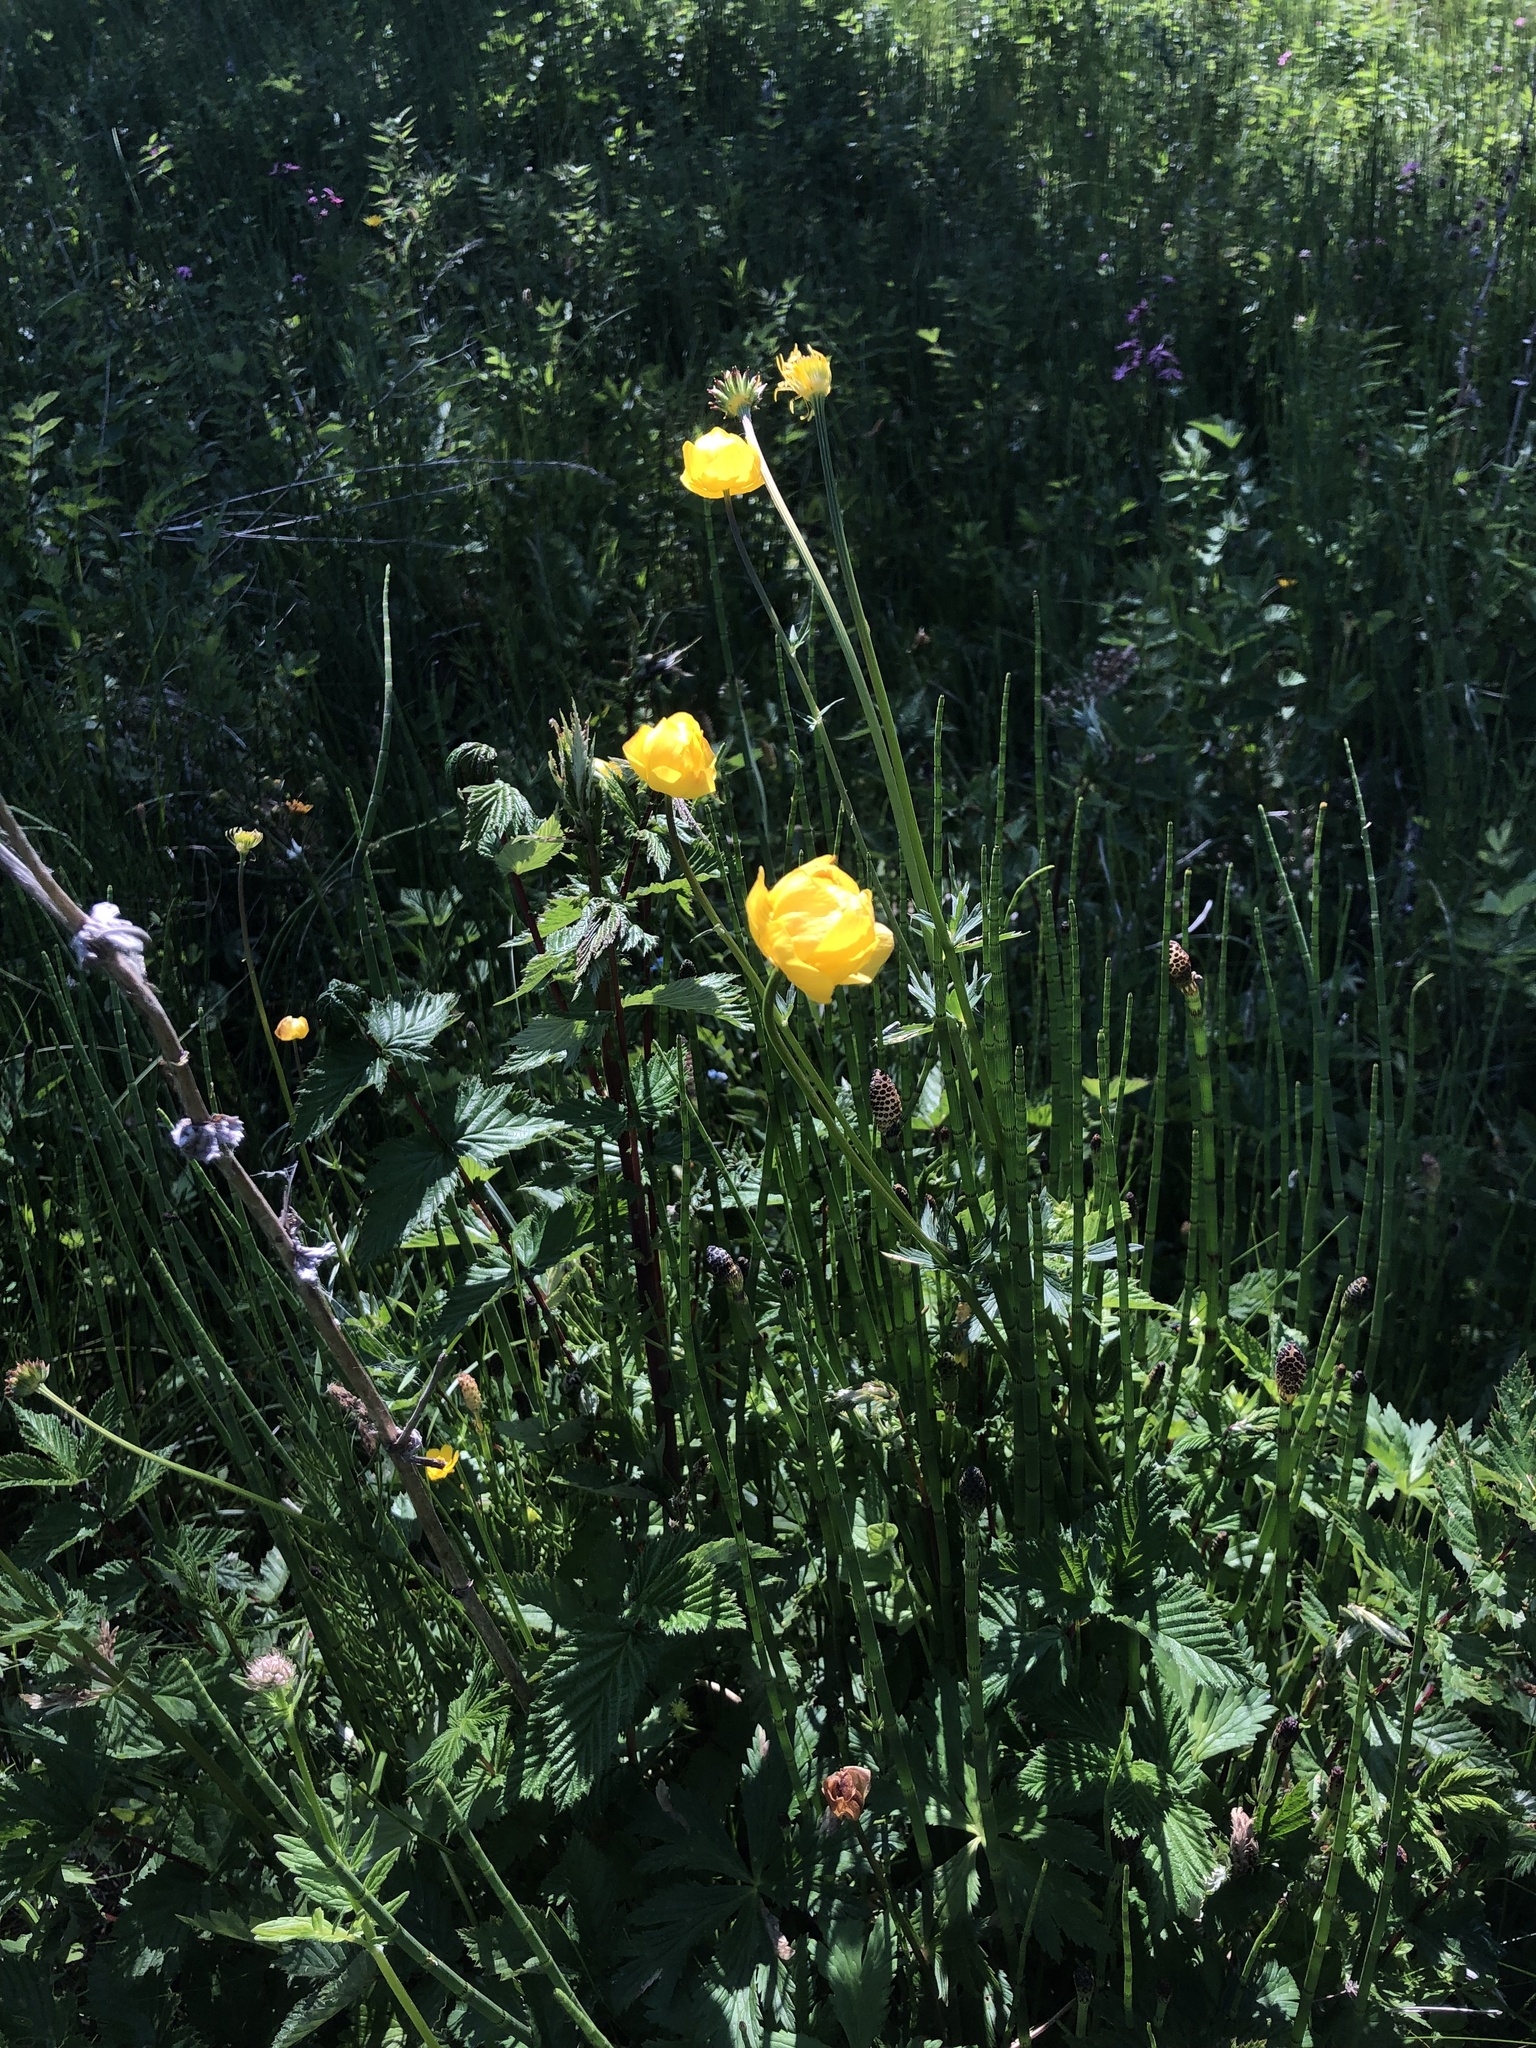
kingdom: Plantae
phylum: Tracheophyta
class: Magnoliopsida
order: Ranunculales
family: Ranunculaceae
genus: Trollius
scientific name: Trollius europaeus
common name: European globeflower
